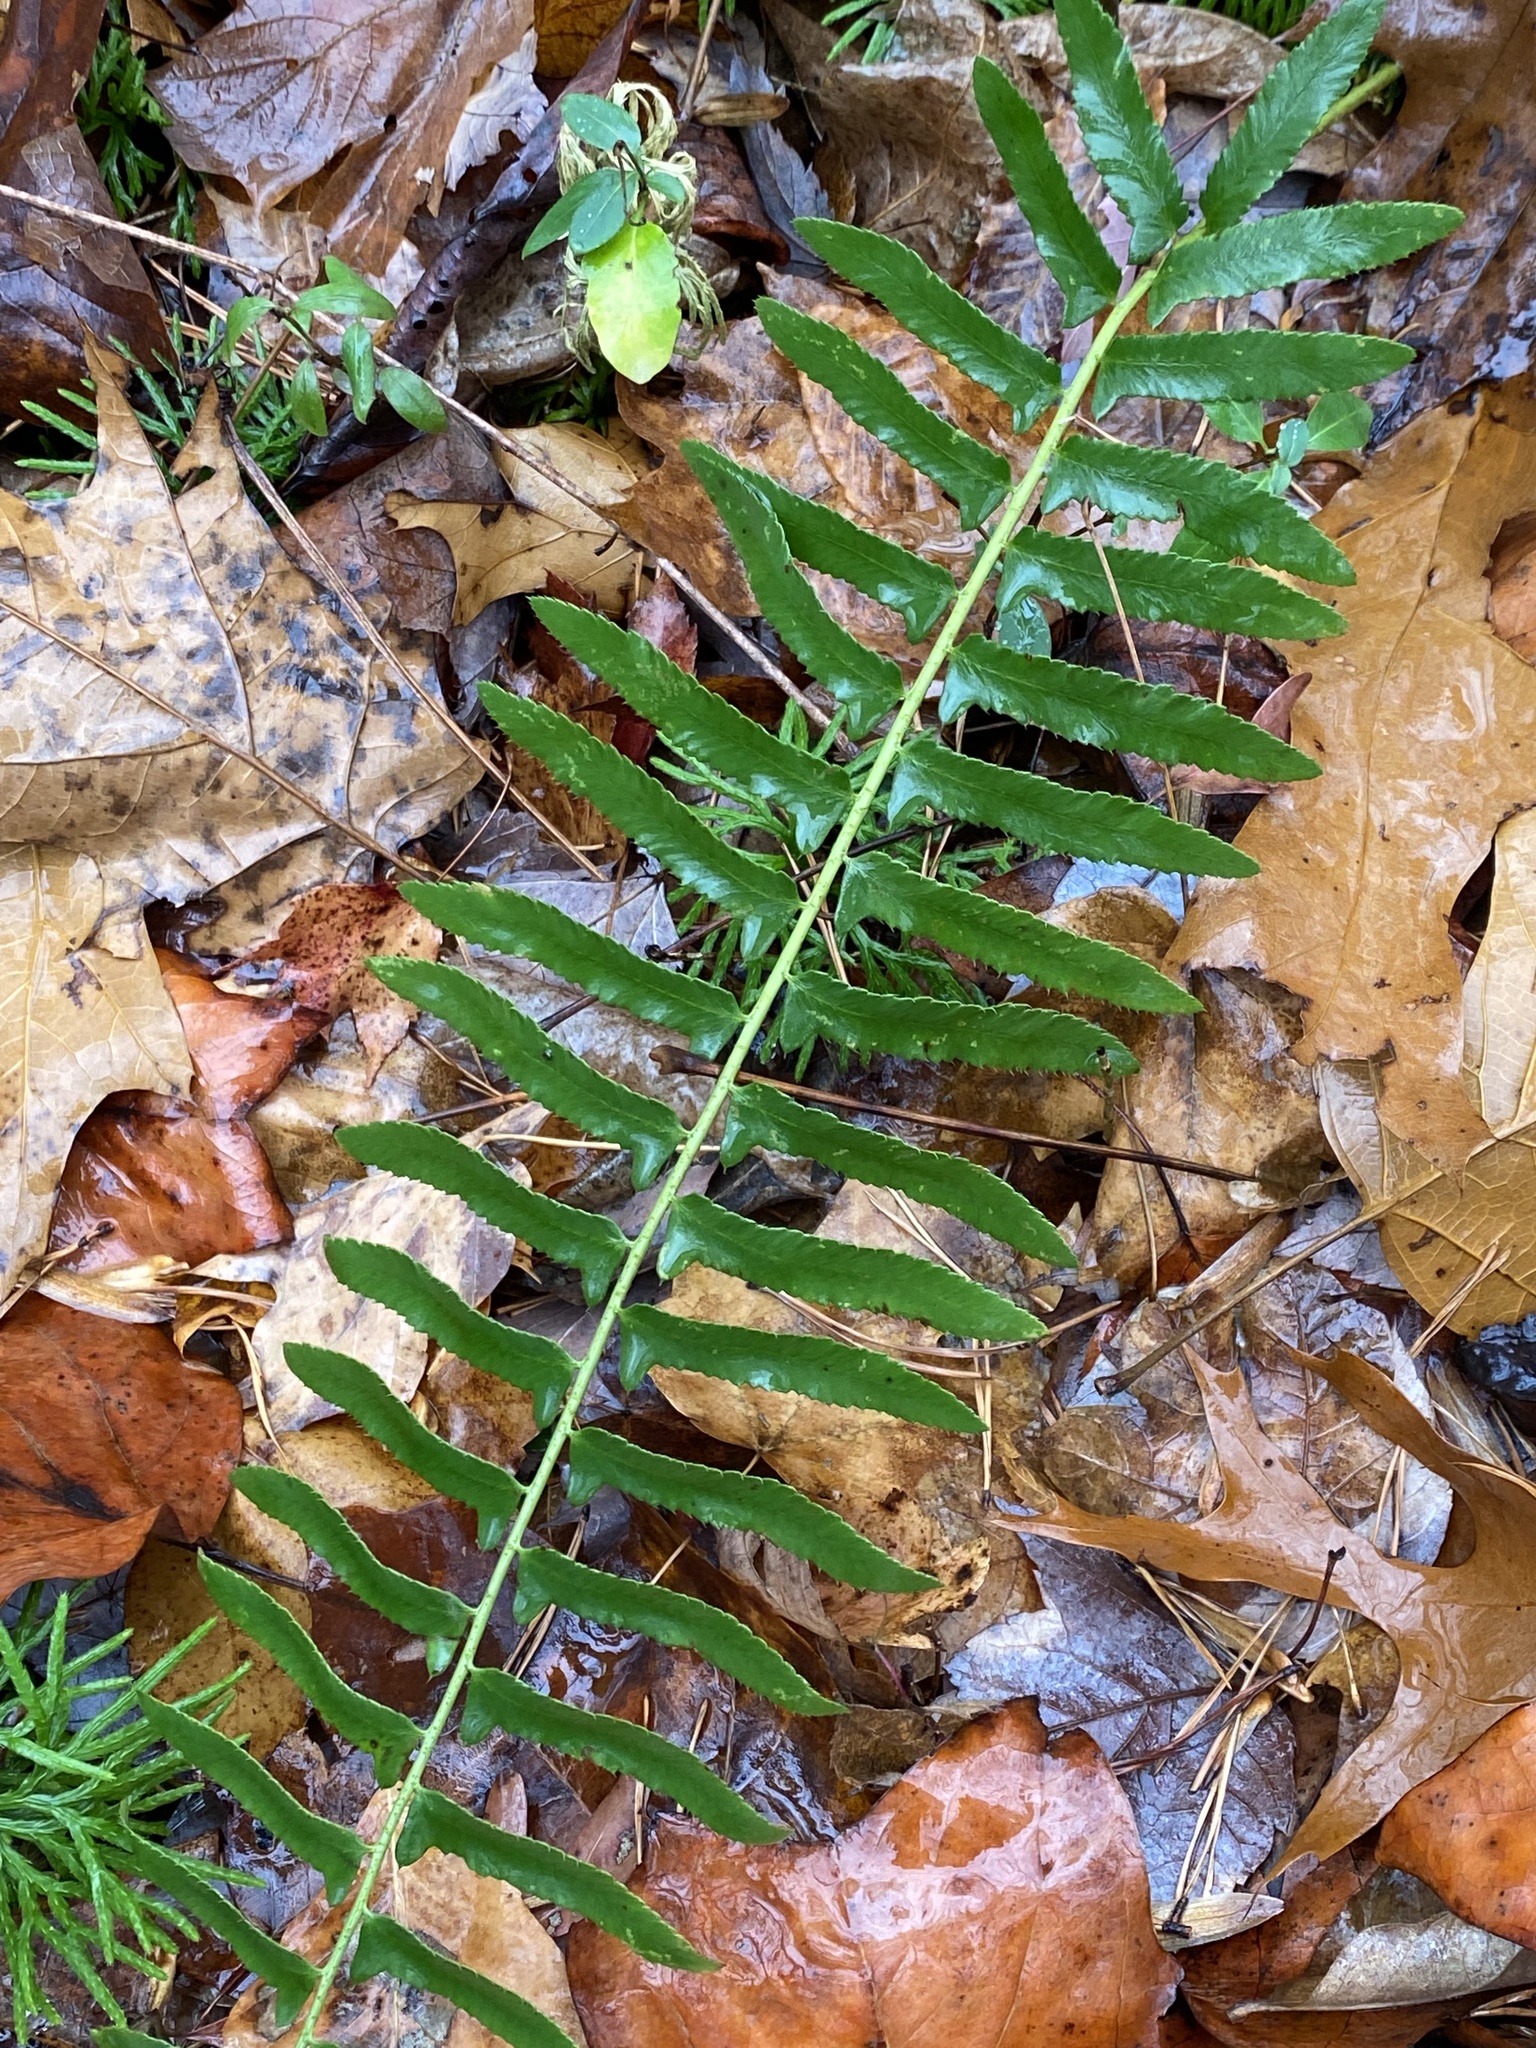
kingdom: Plantae
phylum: Tracheophyta
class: Polypodiopsida
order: Polypodiales
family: Dryopteridaceae
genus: Polystichum
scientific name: Polystichum acrostichoides
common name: Christmas fern
